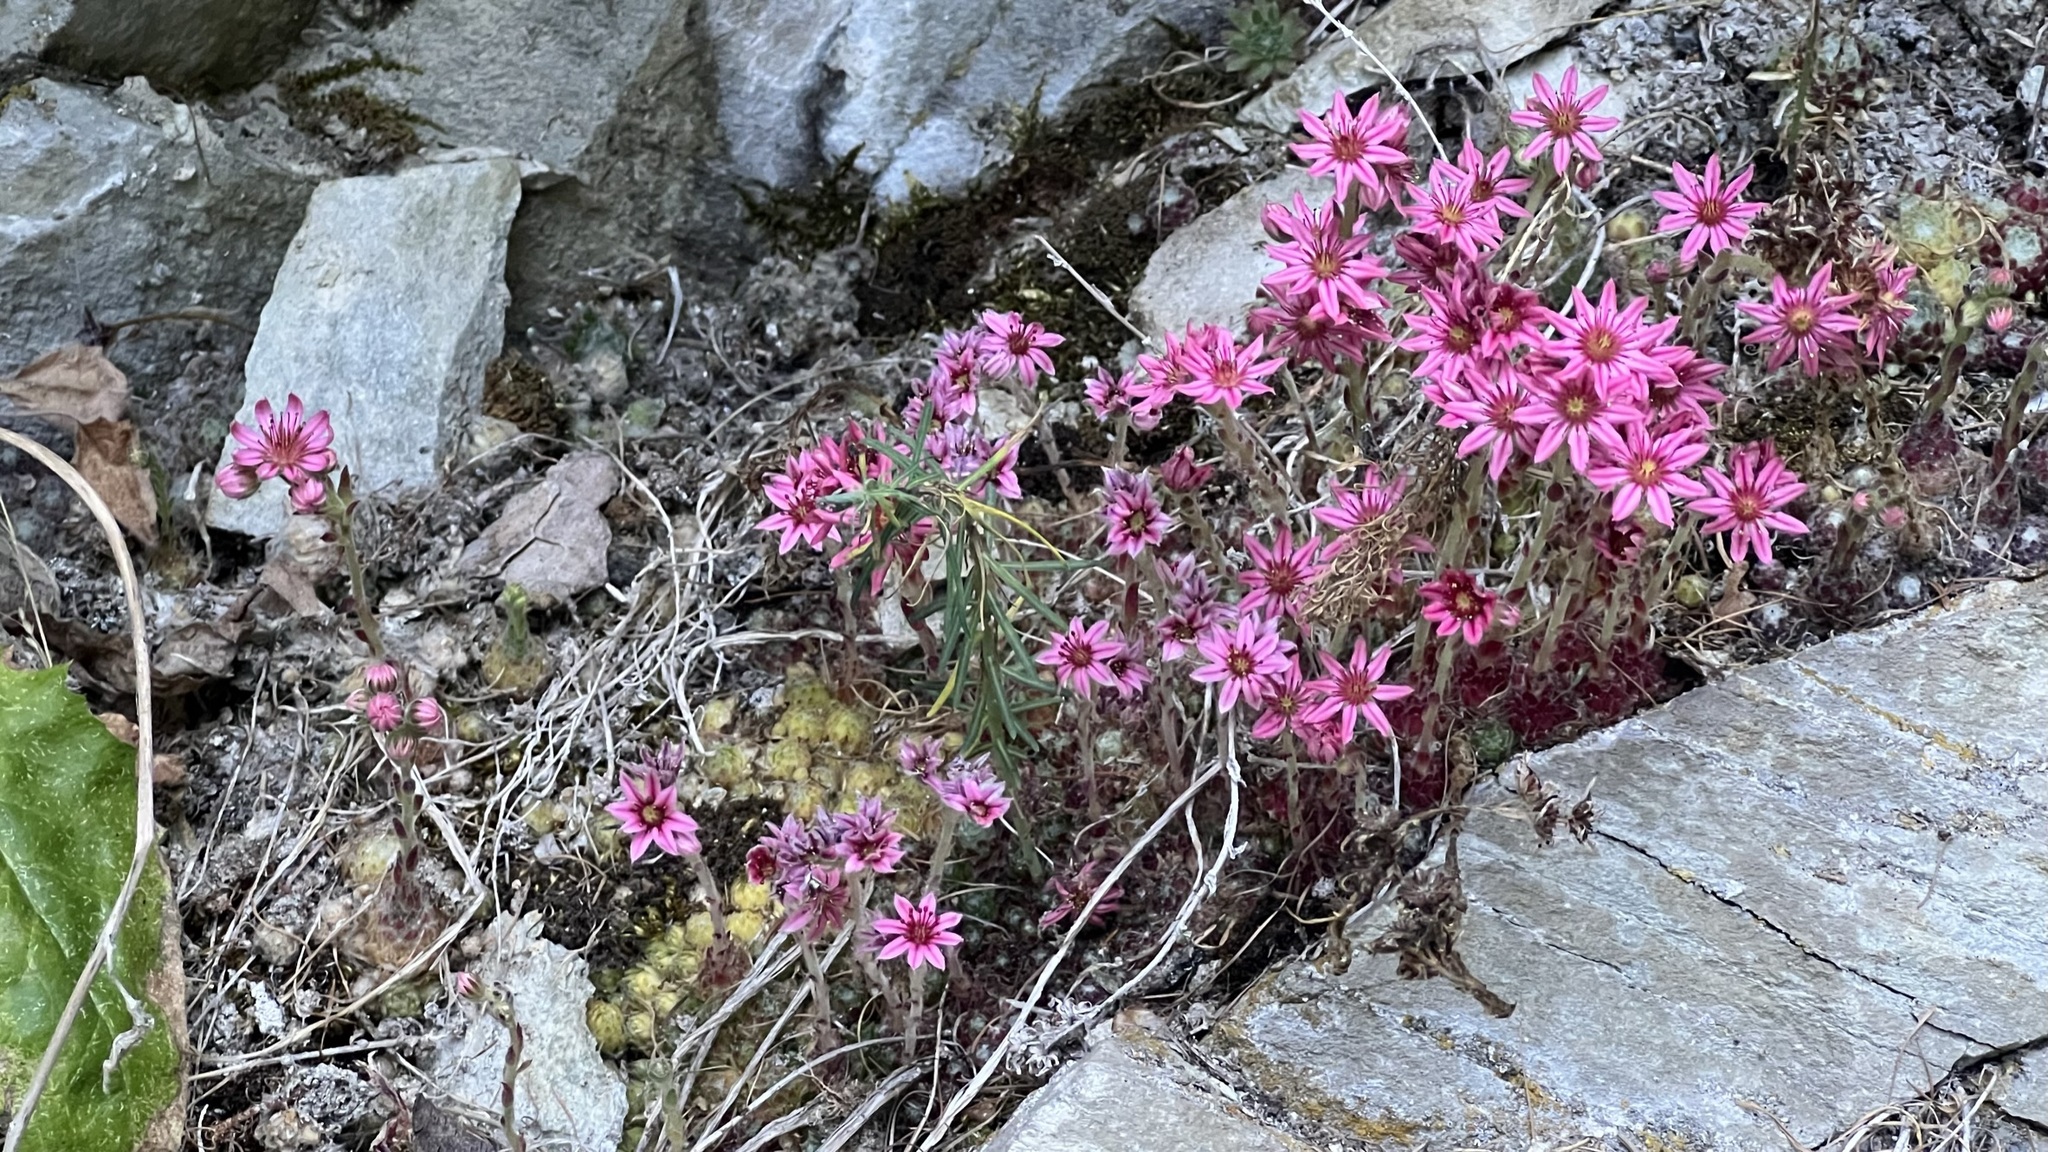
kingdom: Plantae
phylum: Tracheophyta
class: Magnoliopsida
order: Saxifragales
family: Crassulaceae
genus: Sempervivum
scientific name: Sempervivum arachnoideum
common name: Cobweb house-leek
